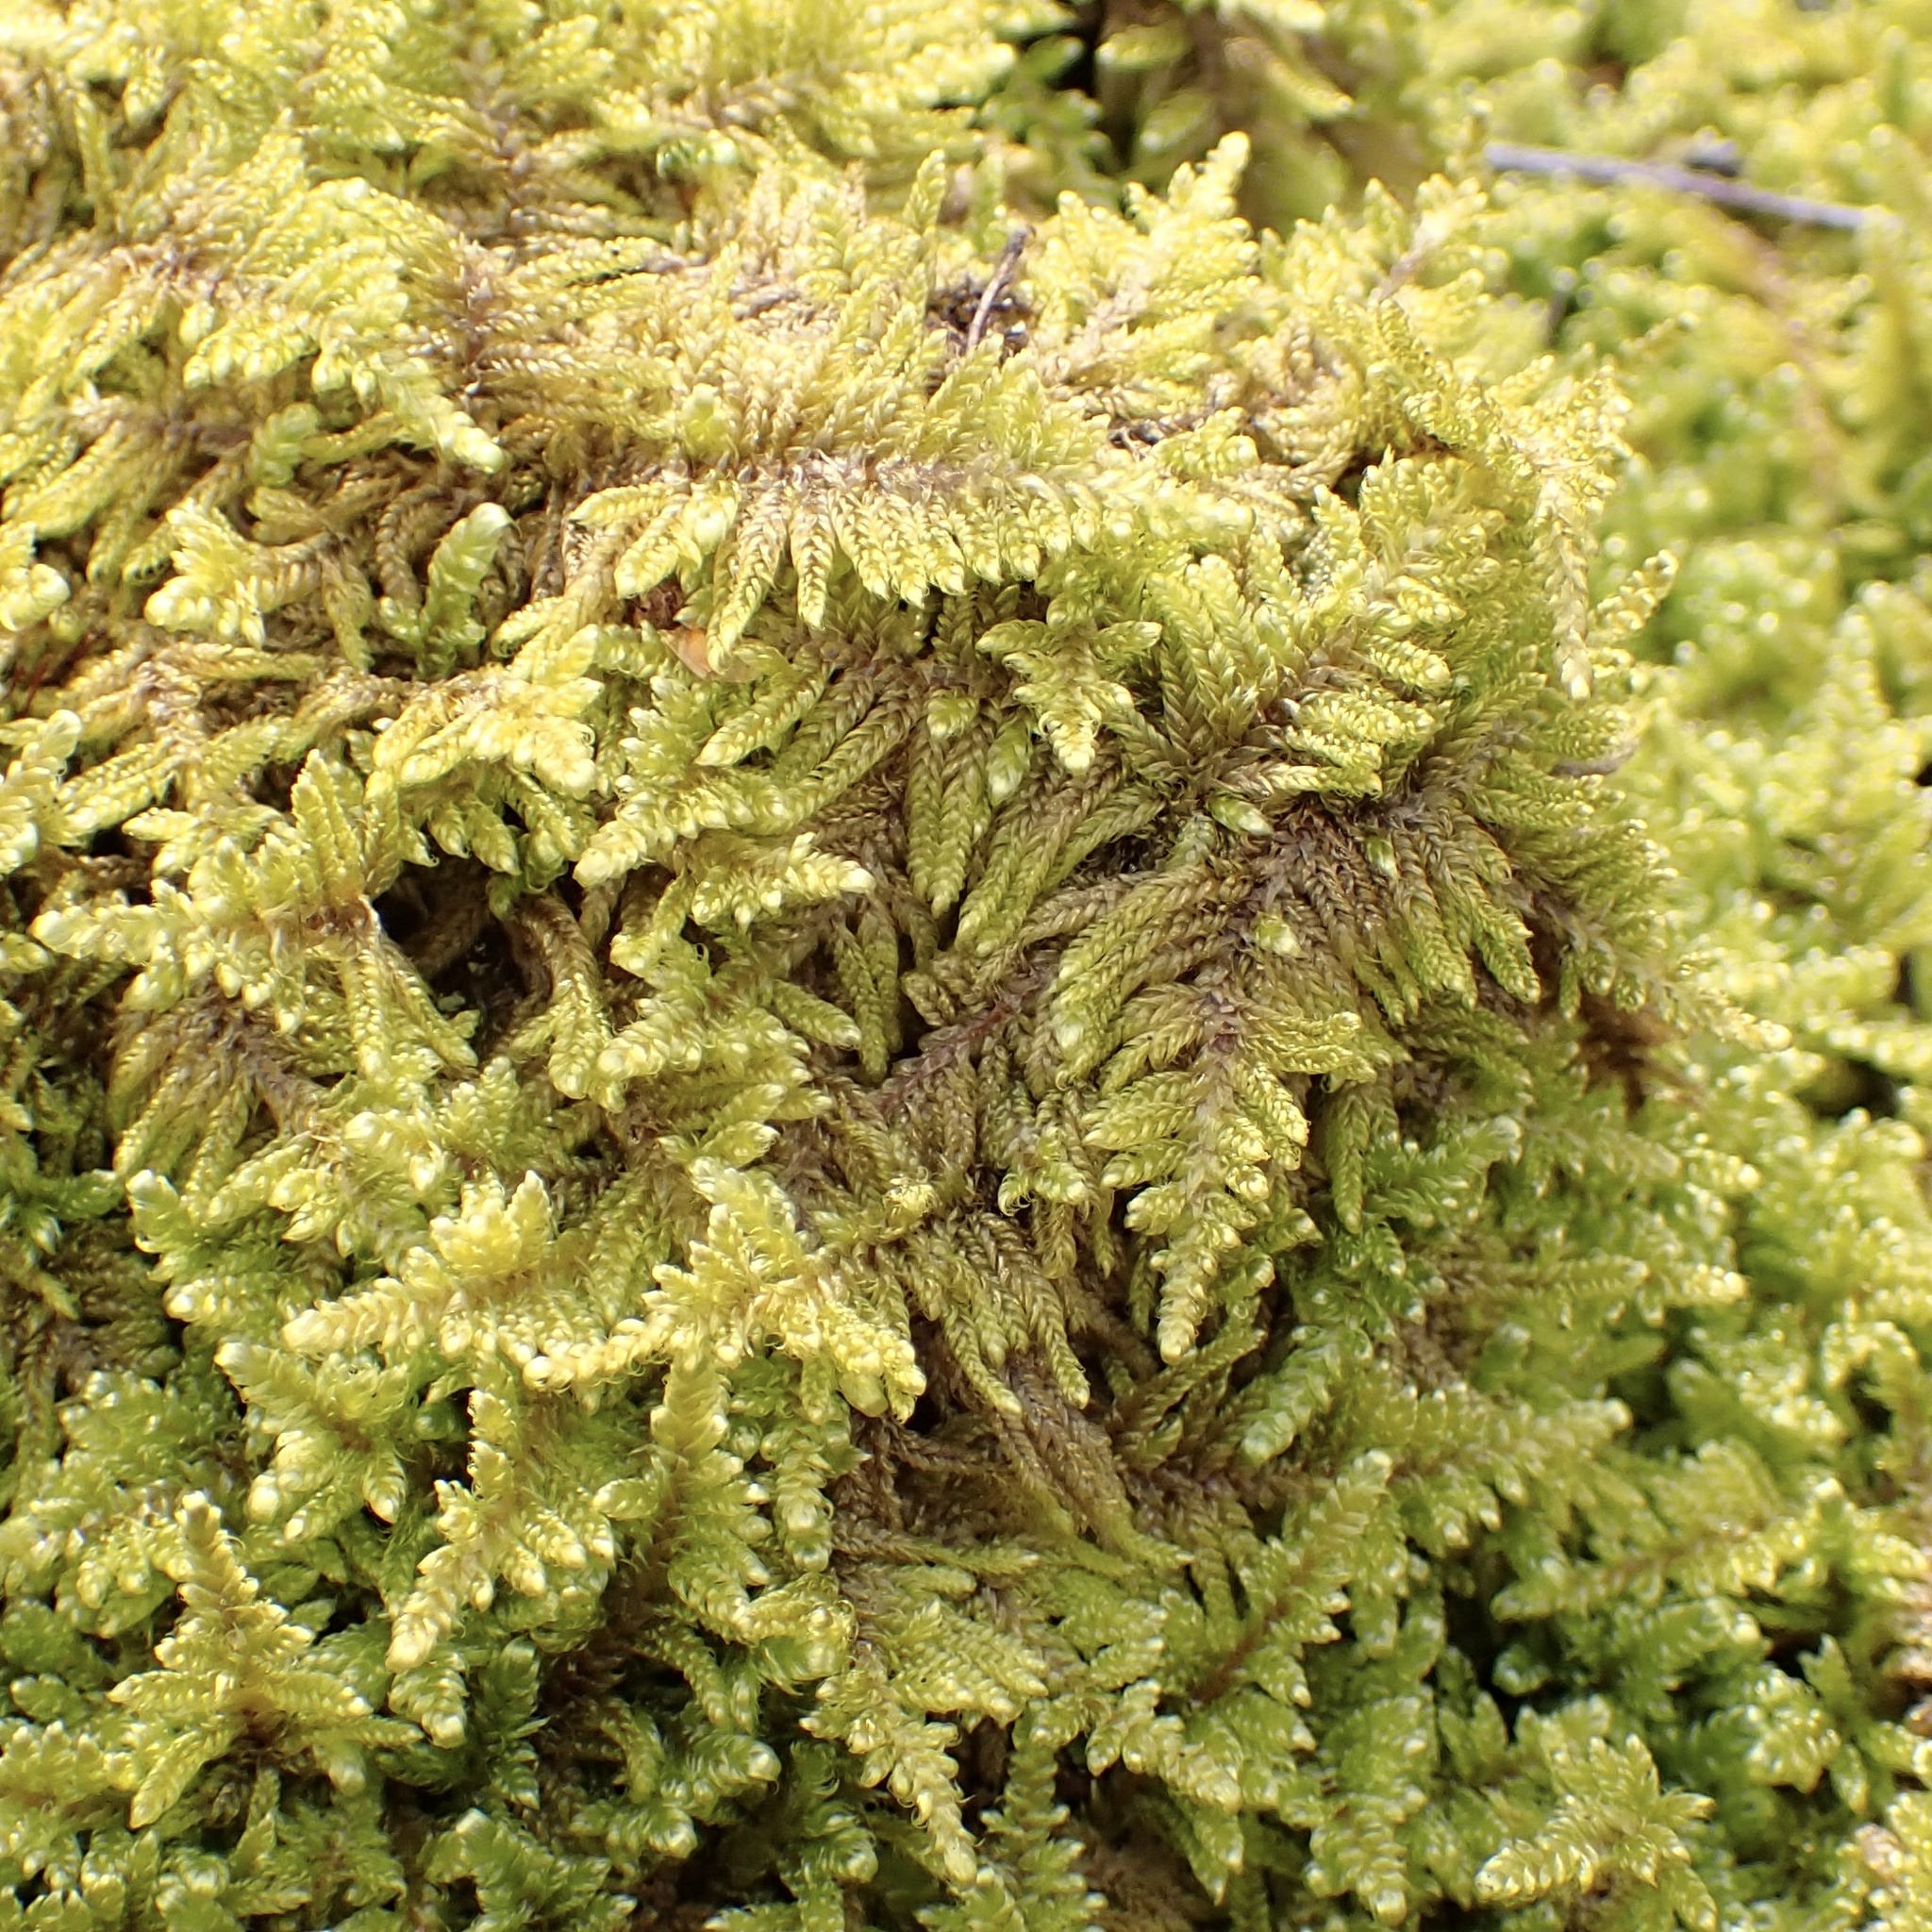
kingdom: Plantae
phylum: Bryophyta
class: Bryopsida
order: Hypnales
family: Callicladiaceae
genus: Callicladium
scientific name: Callicladium imponens
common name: Brocade moss
